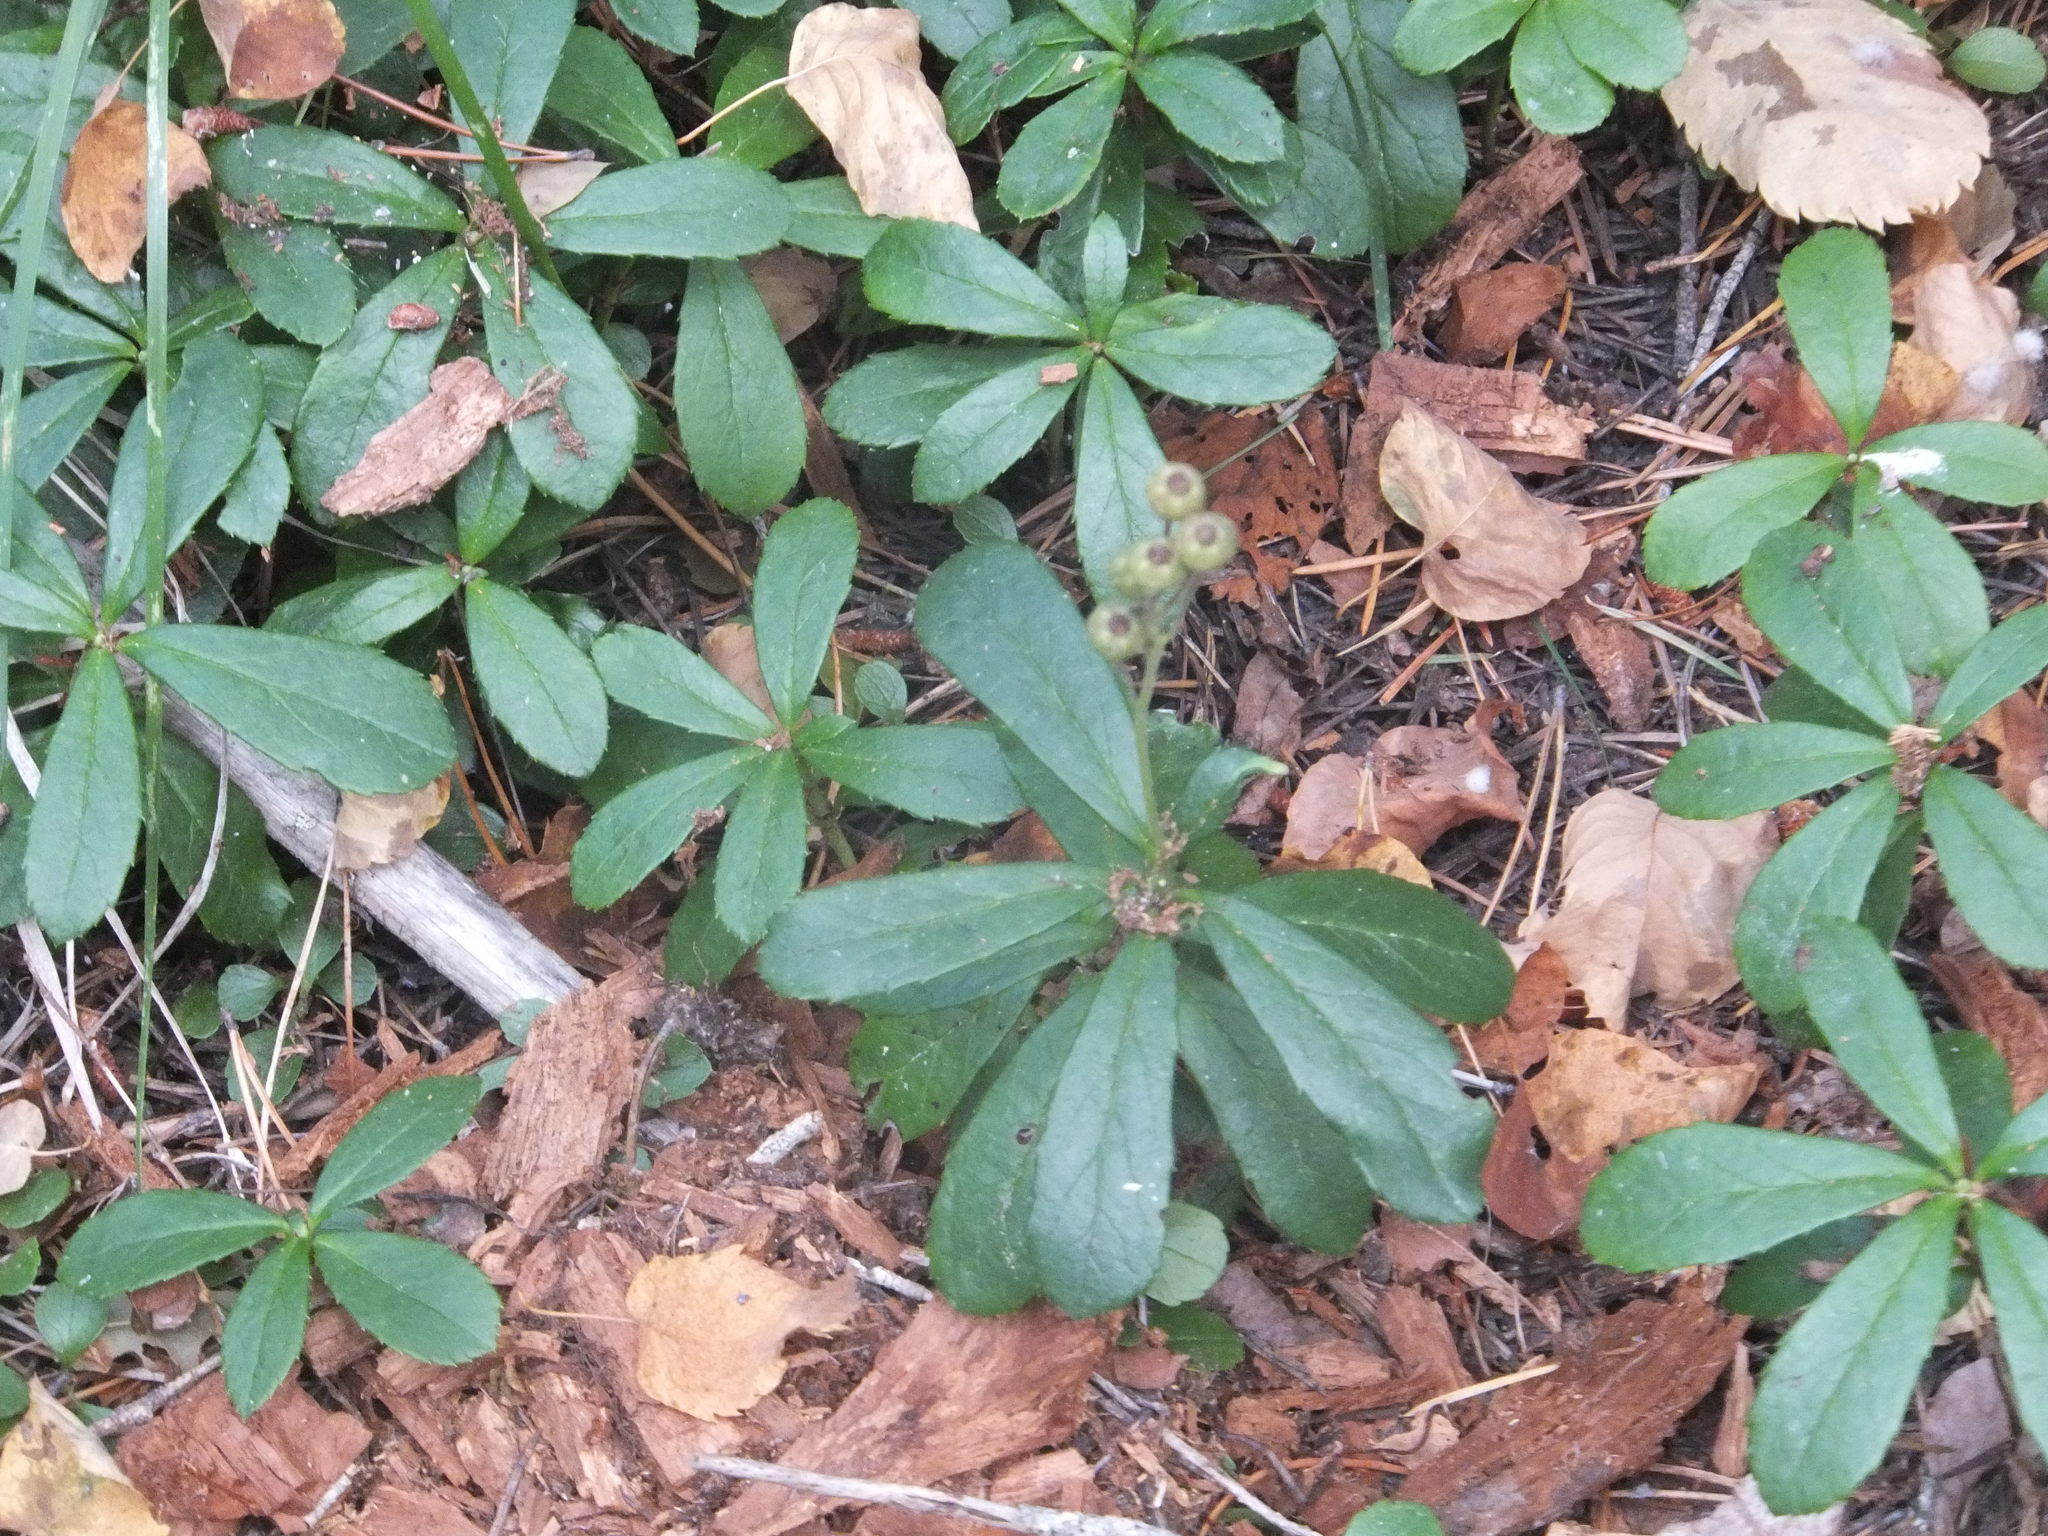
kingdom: Plantae
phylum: Tracheophyta
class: Magnoliopsida
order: Ericales
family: Ericaceae
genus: Chimaphila
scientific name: Chimaphila umbellata
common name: Pipsissewa
